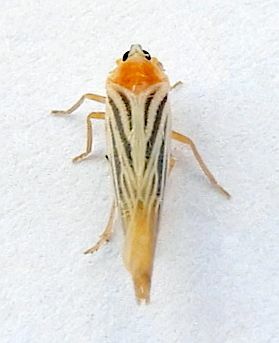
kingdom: Animalia
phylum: Arthropoda
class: Insecta
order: Hemiptera
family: Derbidae
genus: Persis
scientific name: Persis arizonensis
